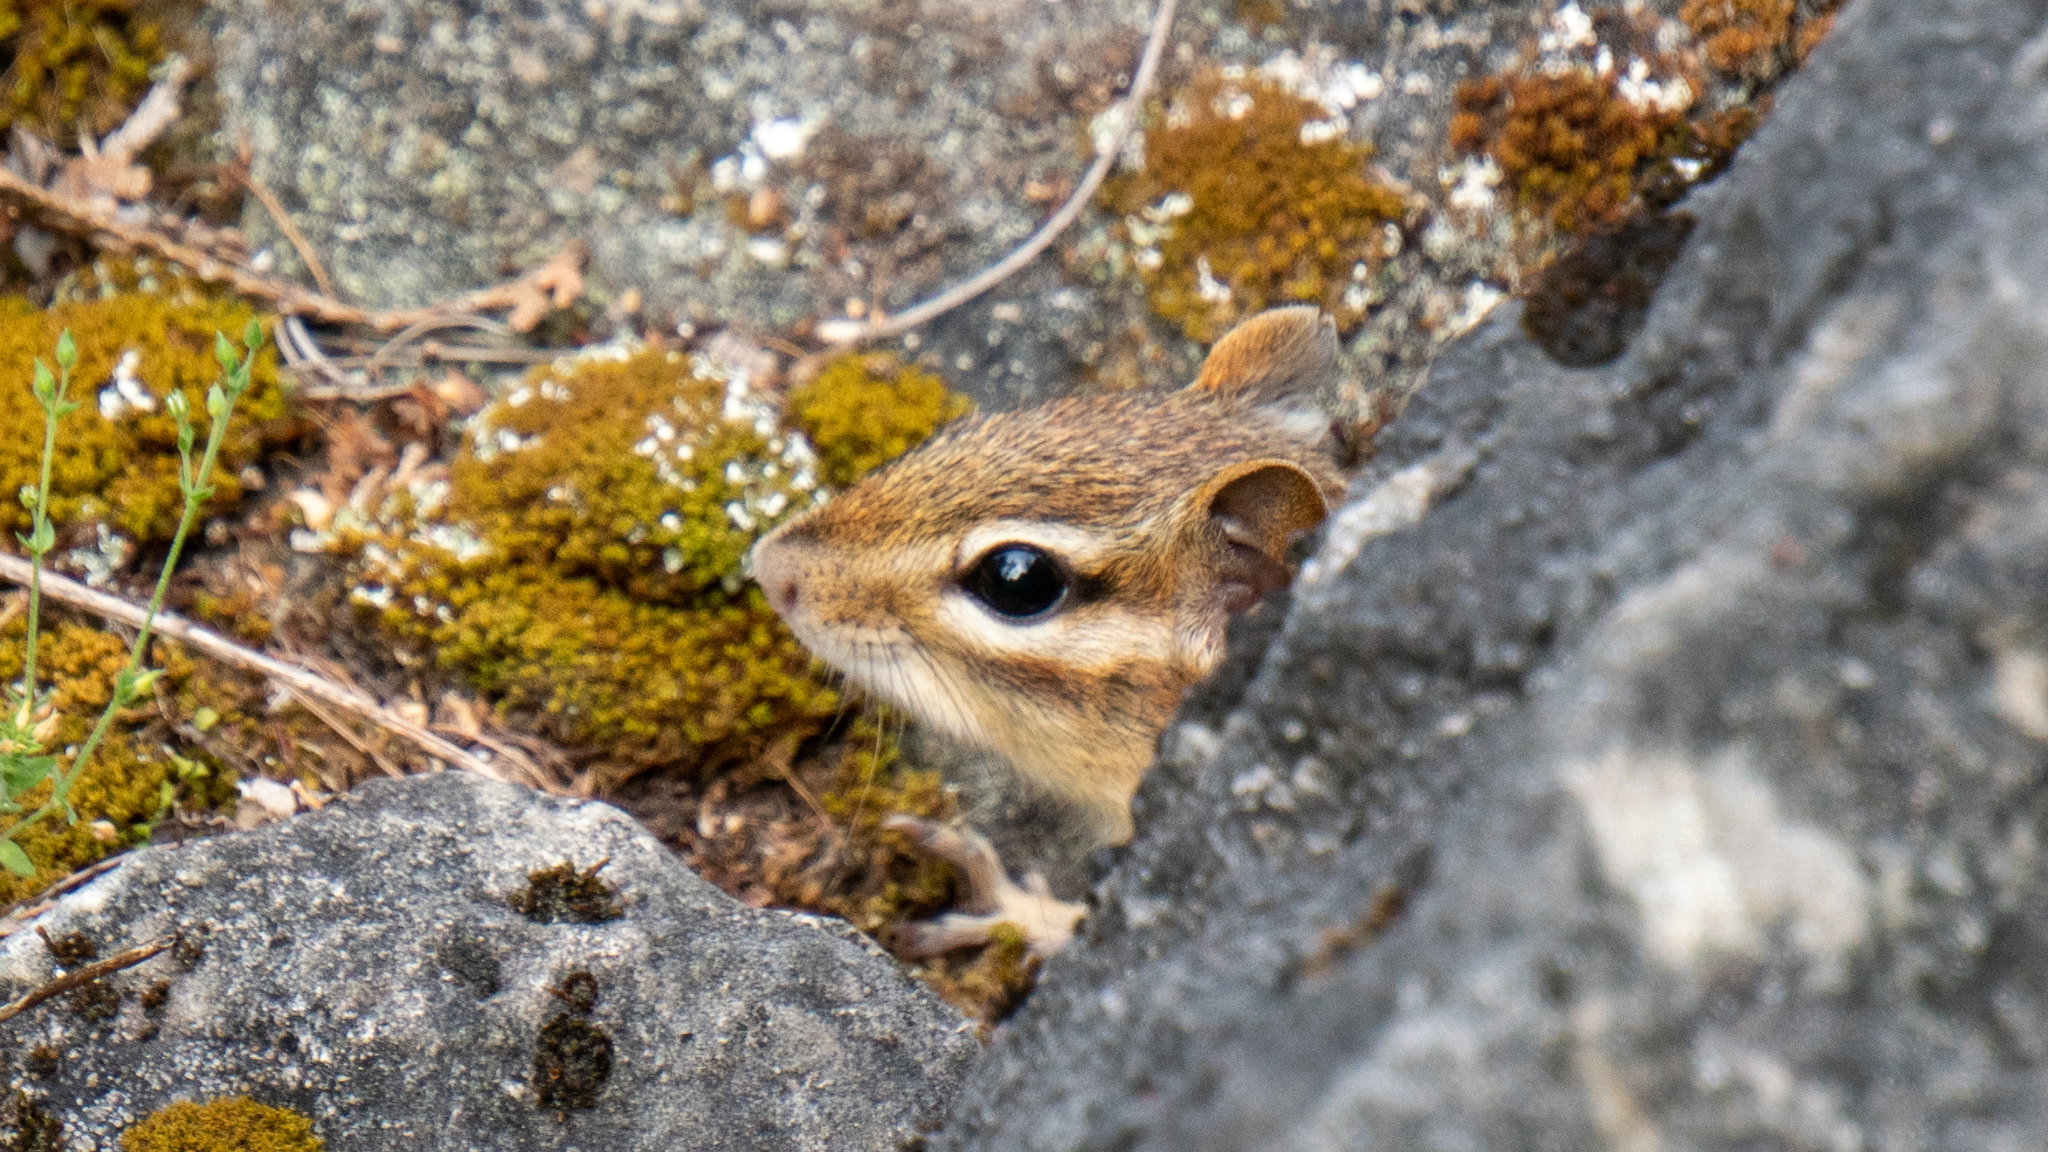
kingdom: Animalia
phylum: Chordata
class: Mammalia
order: Rodentia
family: Sciuridae
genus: Tamias
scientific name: Tamias striatus
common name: Eastern chipmunk
